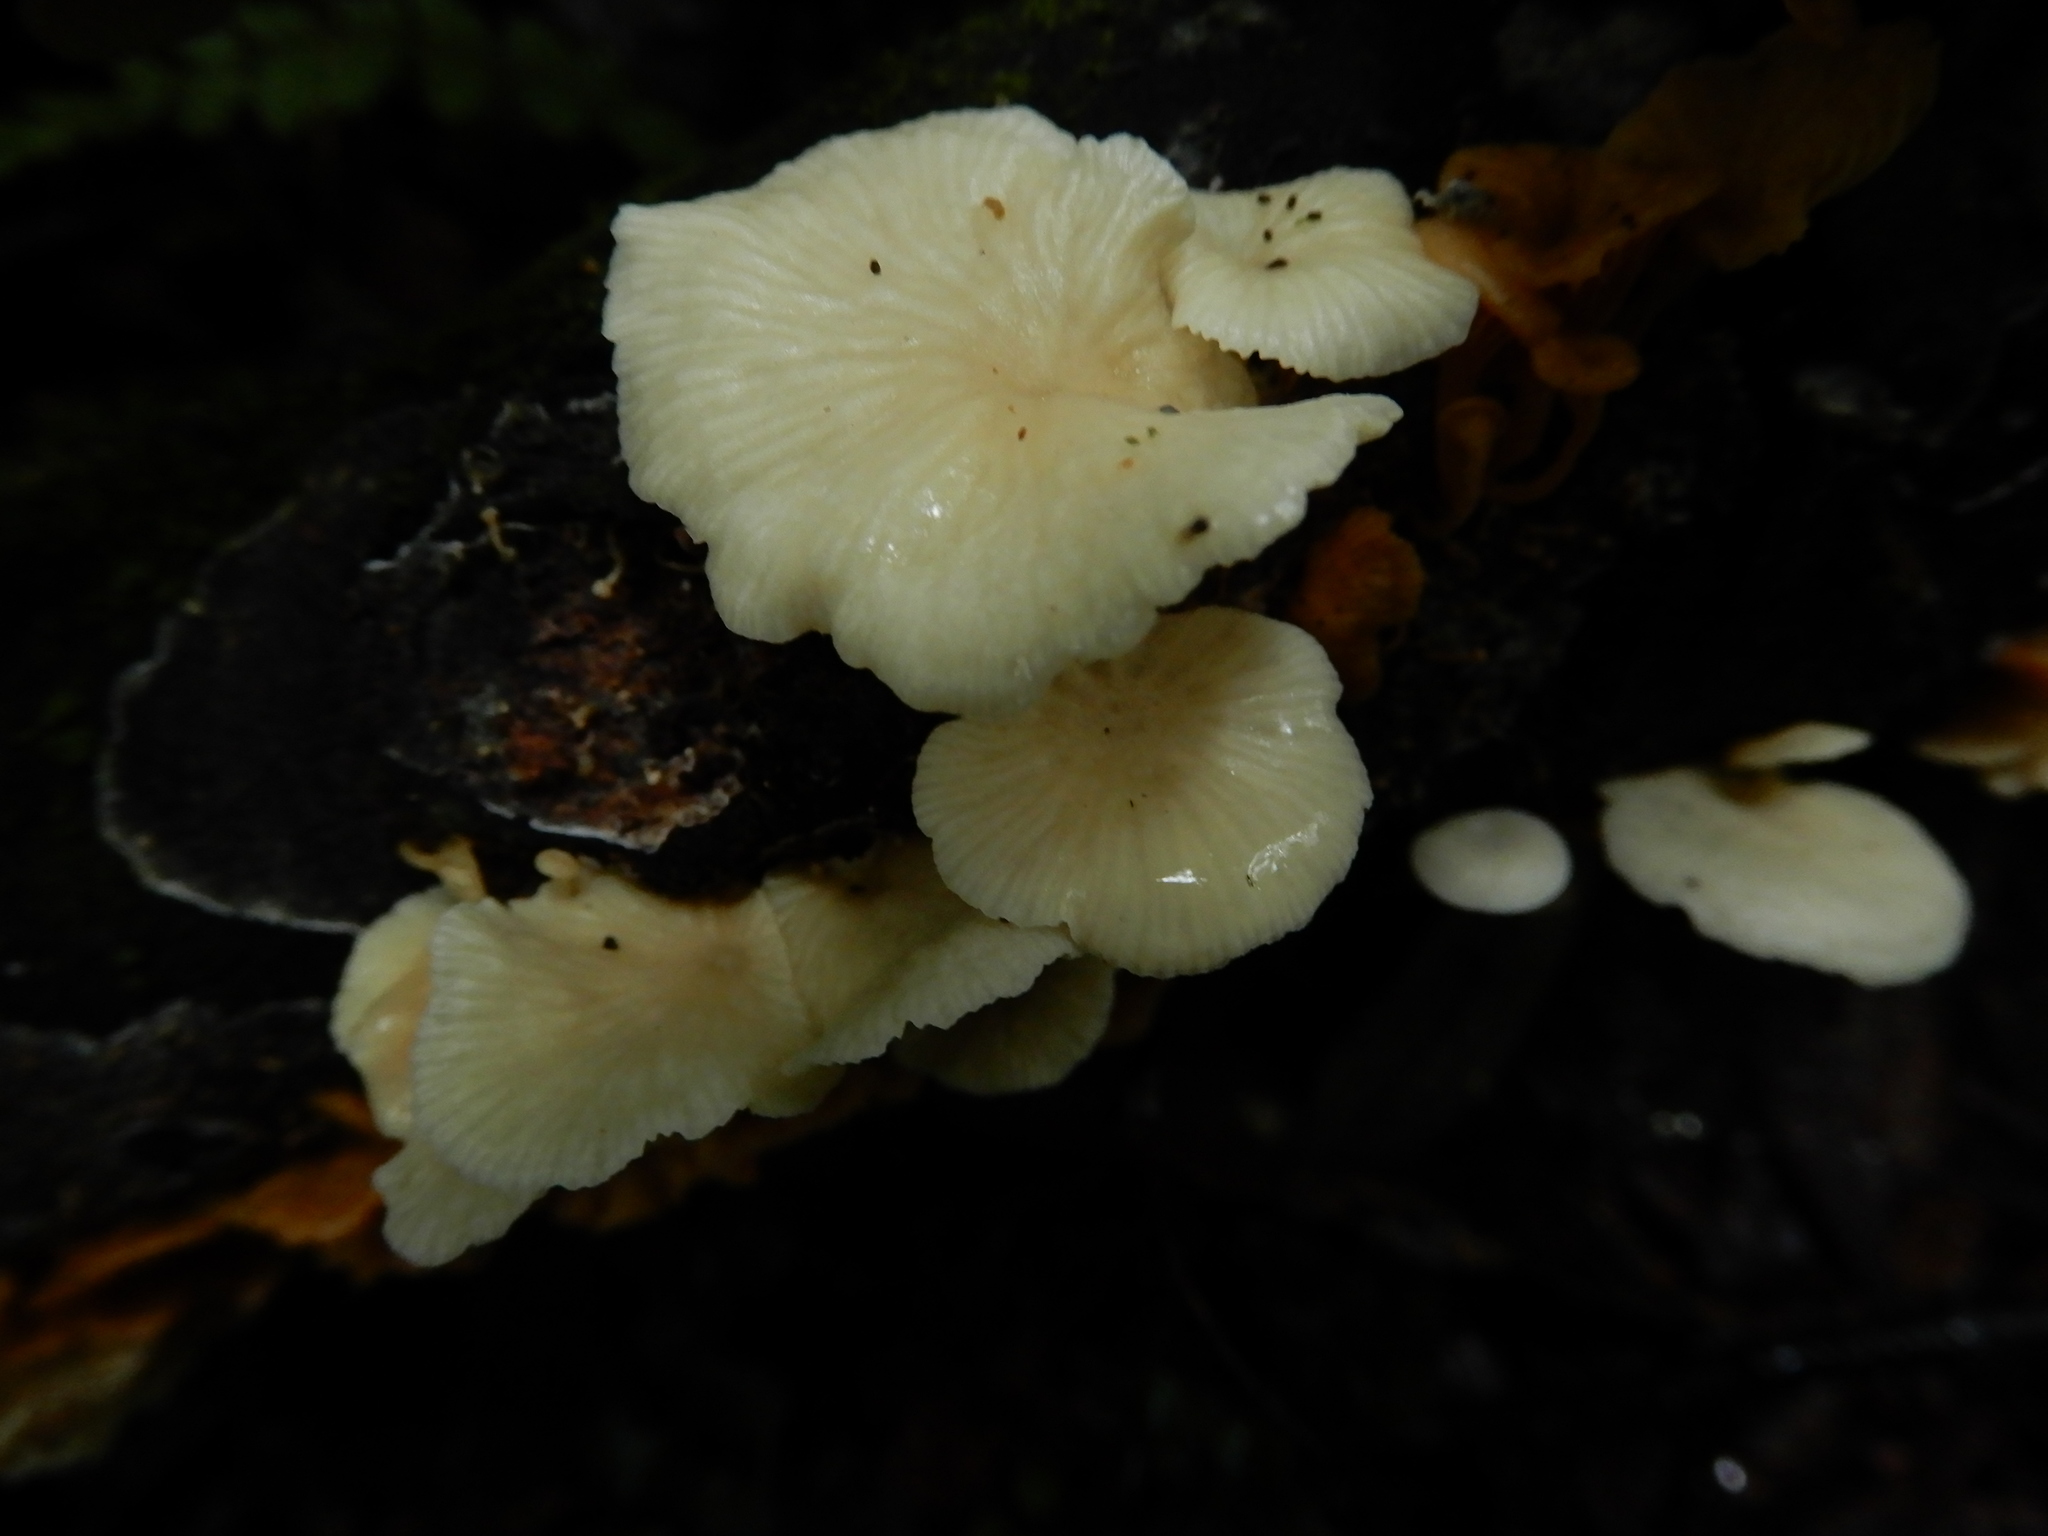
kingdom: Fungi
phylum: Basidiomycota
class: Agaricomycetes
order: Agaricales
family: Tricholomataceae
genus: Rhizocybe
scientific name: Rhizocybe albida
